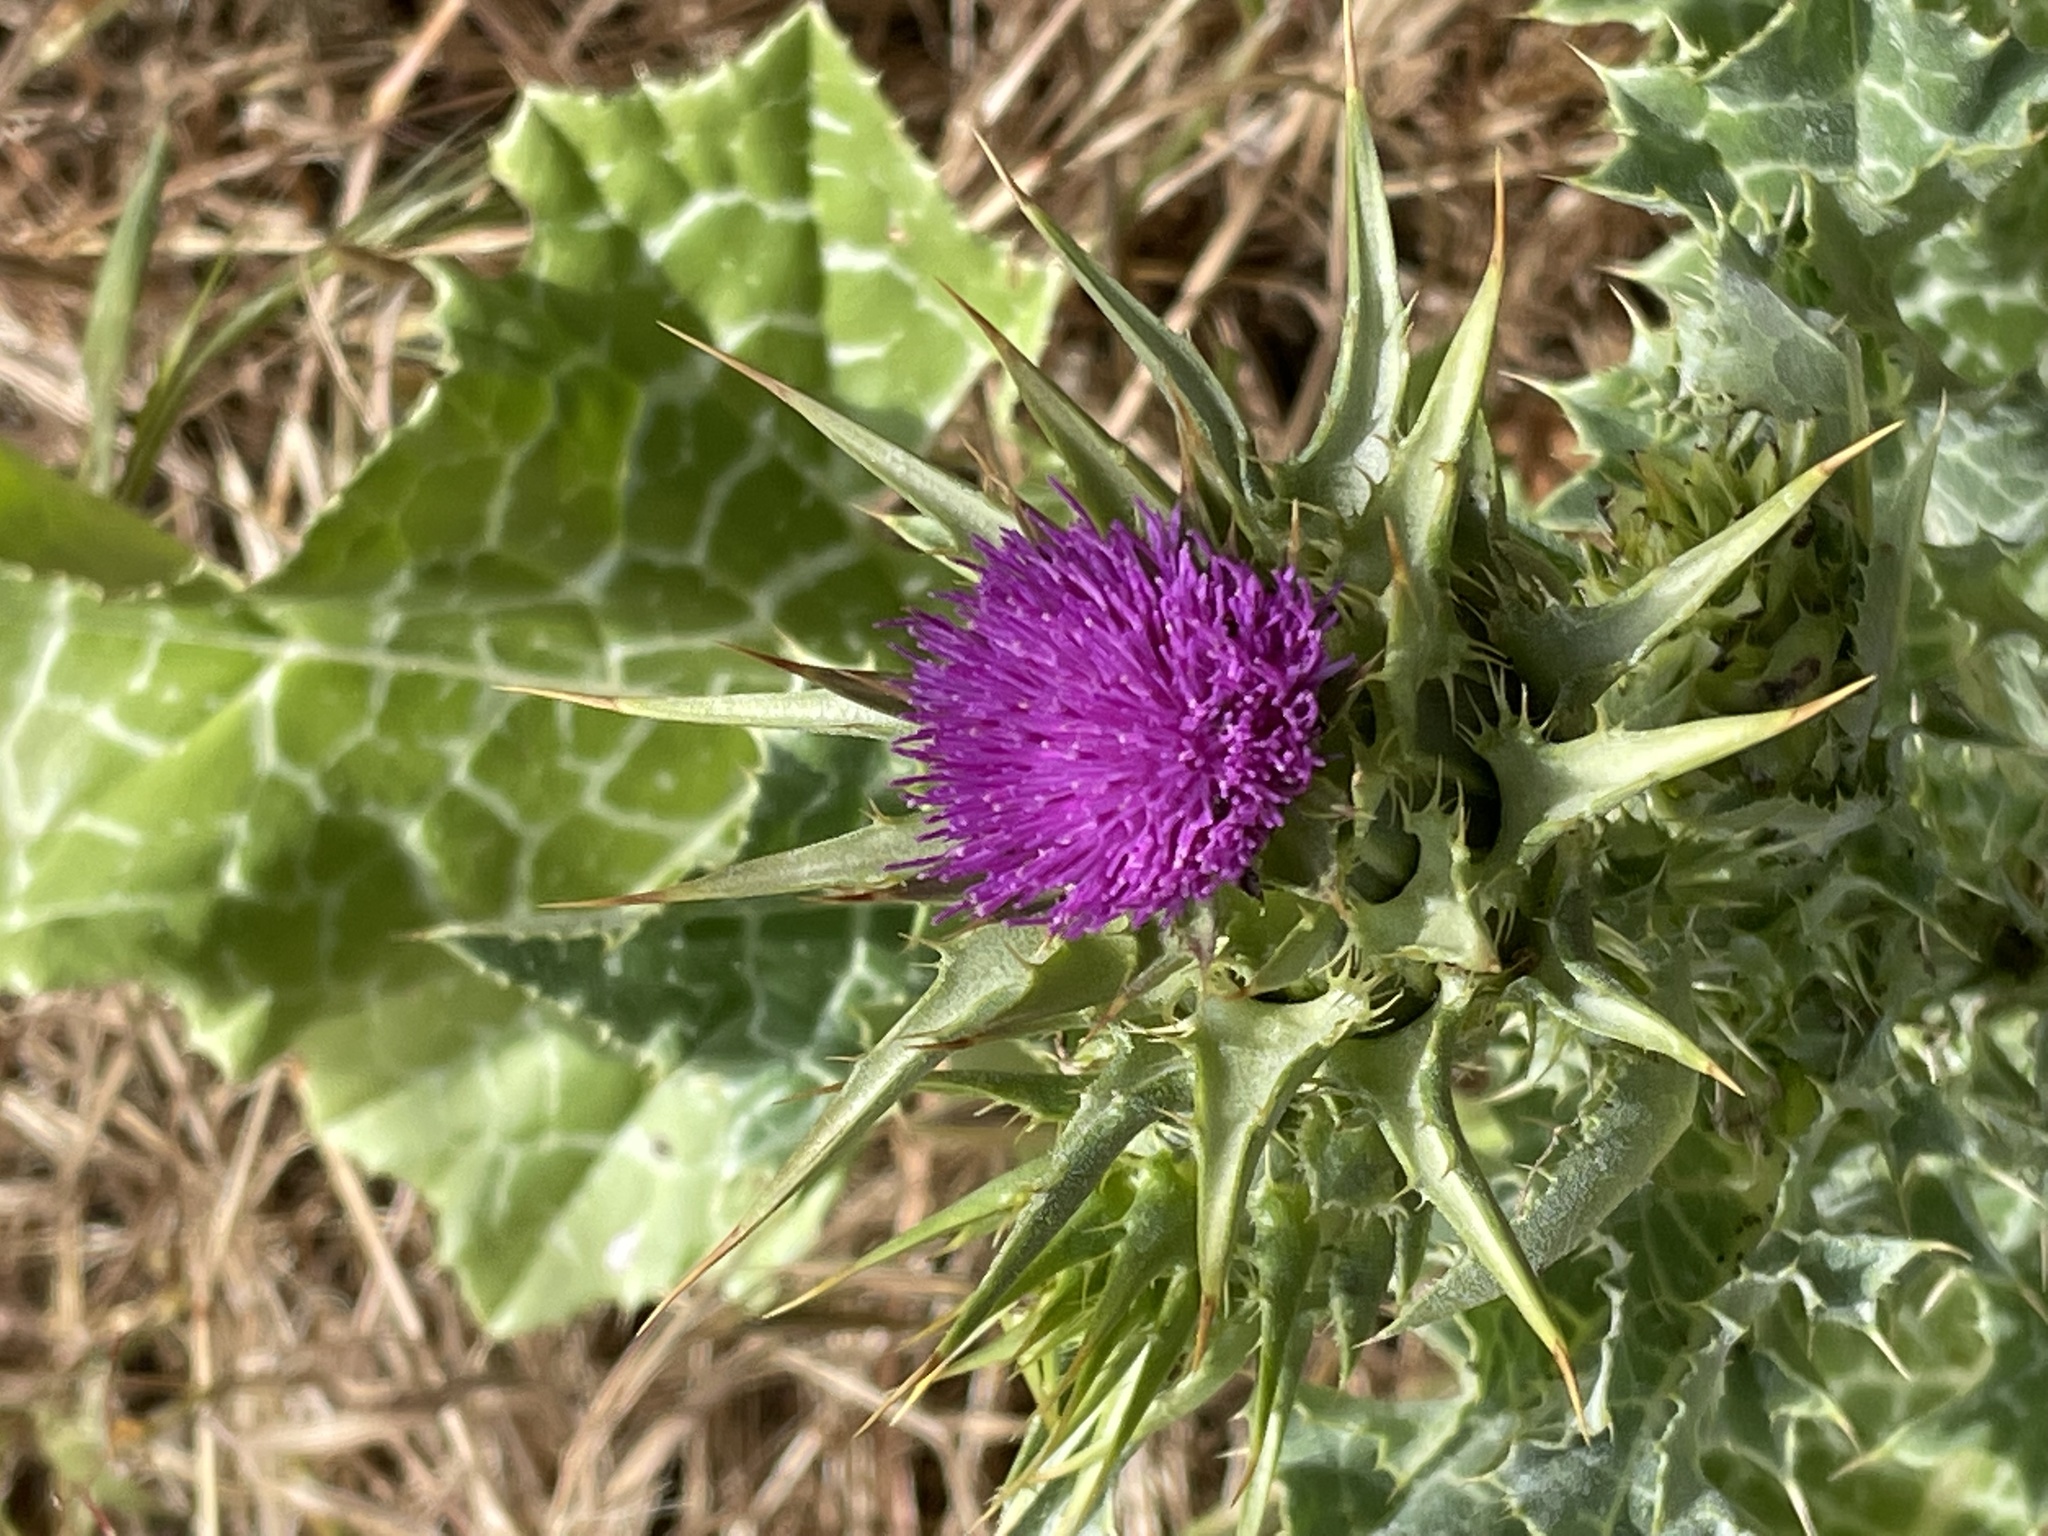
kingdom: Plantae
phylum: Tracheophyta
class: Magnoliopsida
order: Asterales
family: Asteraceae
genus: Silybum
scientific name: Silybum marianum
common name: Milk thistle
